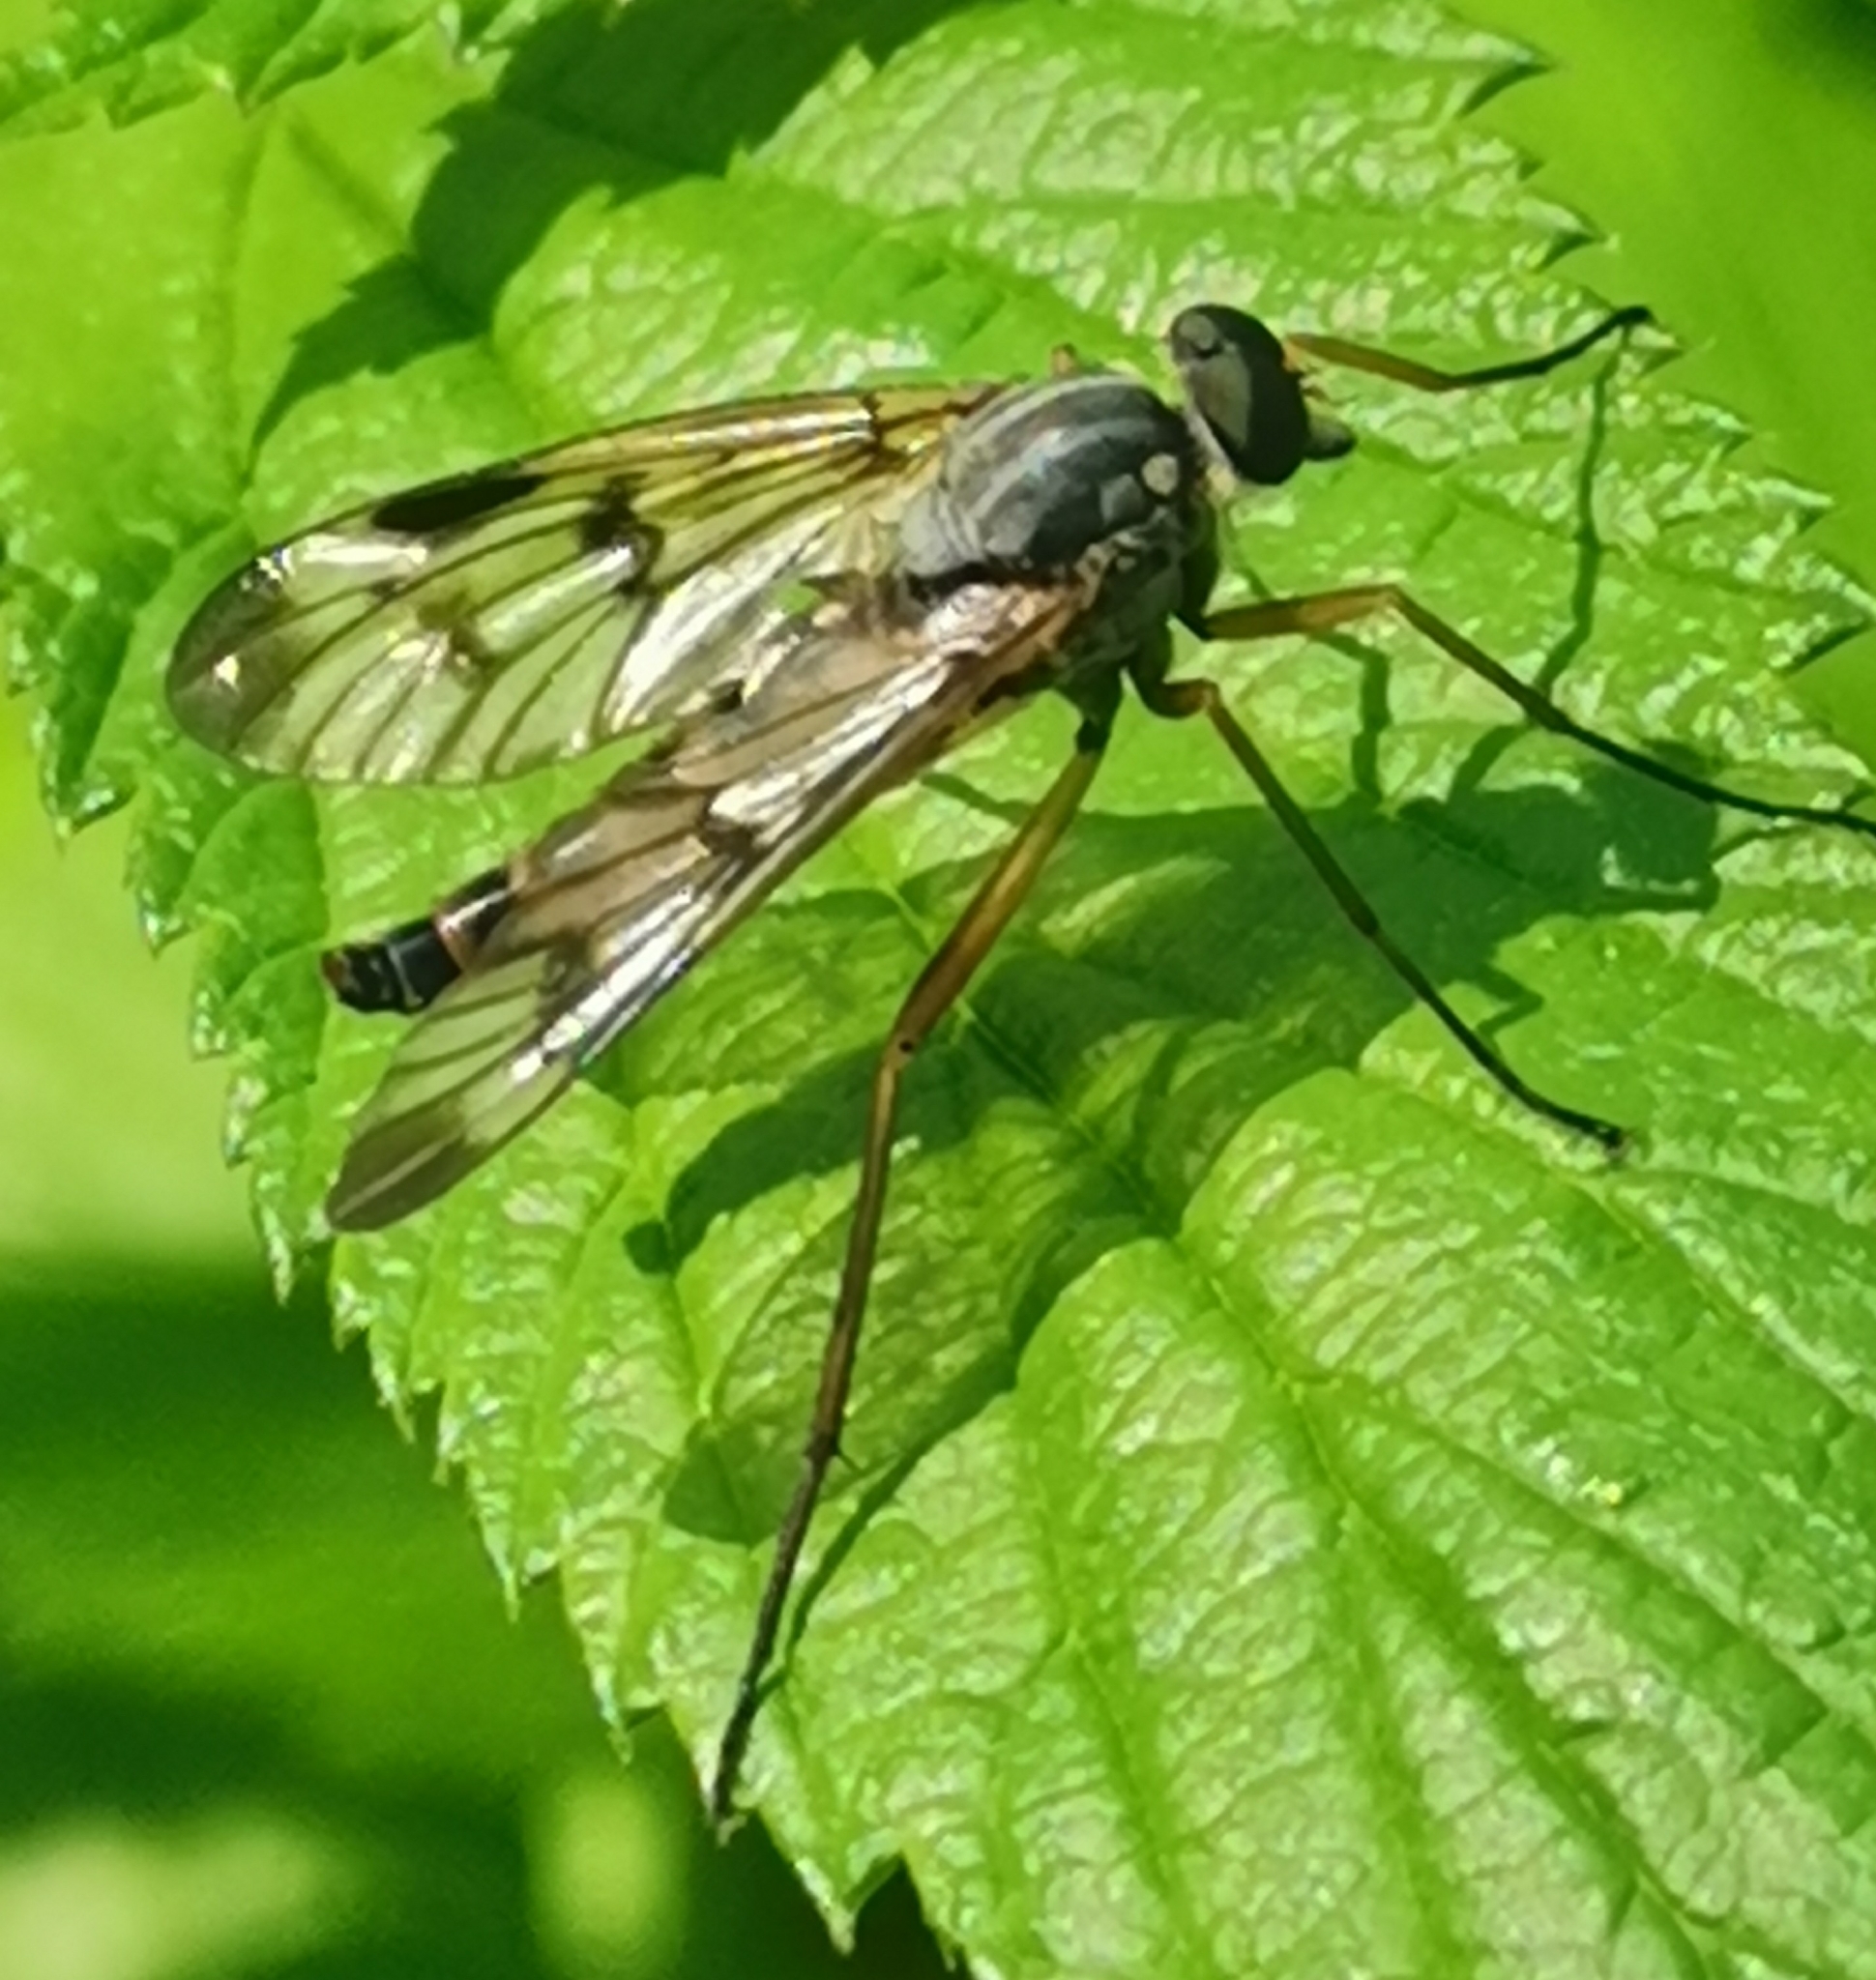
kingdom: Animalia
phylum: Arthropoda
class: Insecta
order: Diptera
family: Rhagionidae
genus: Rhagio
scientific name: Rhagio scolopacea
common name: Downlooker snipefly
